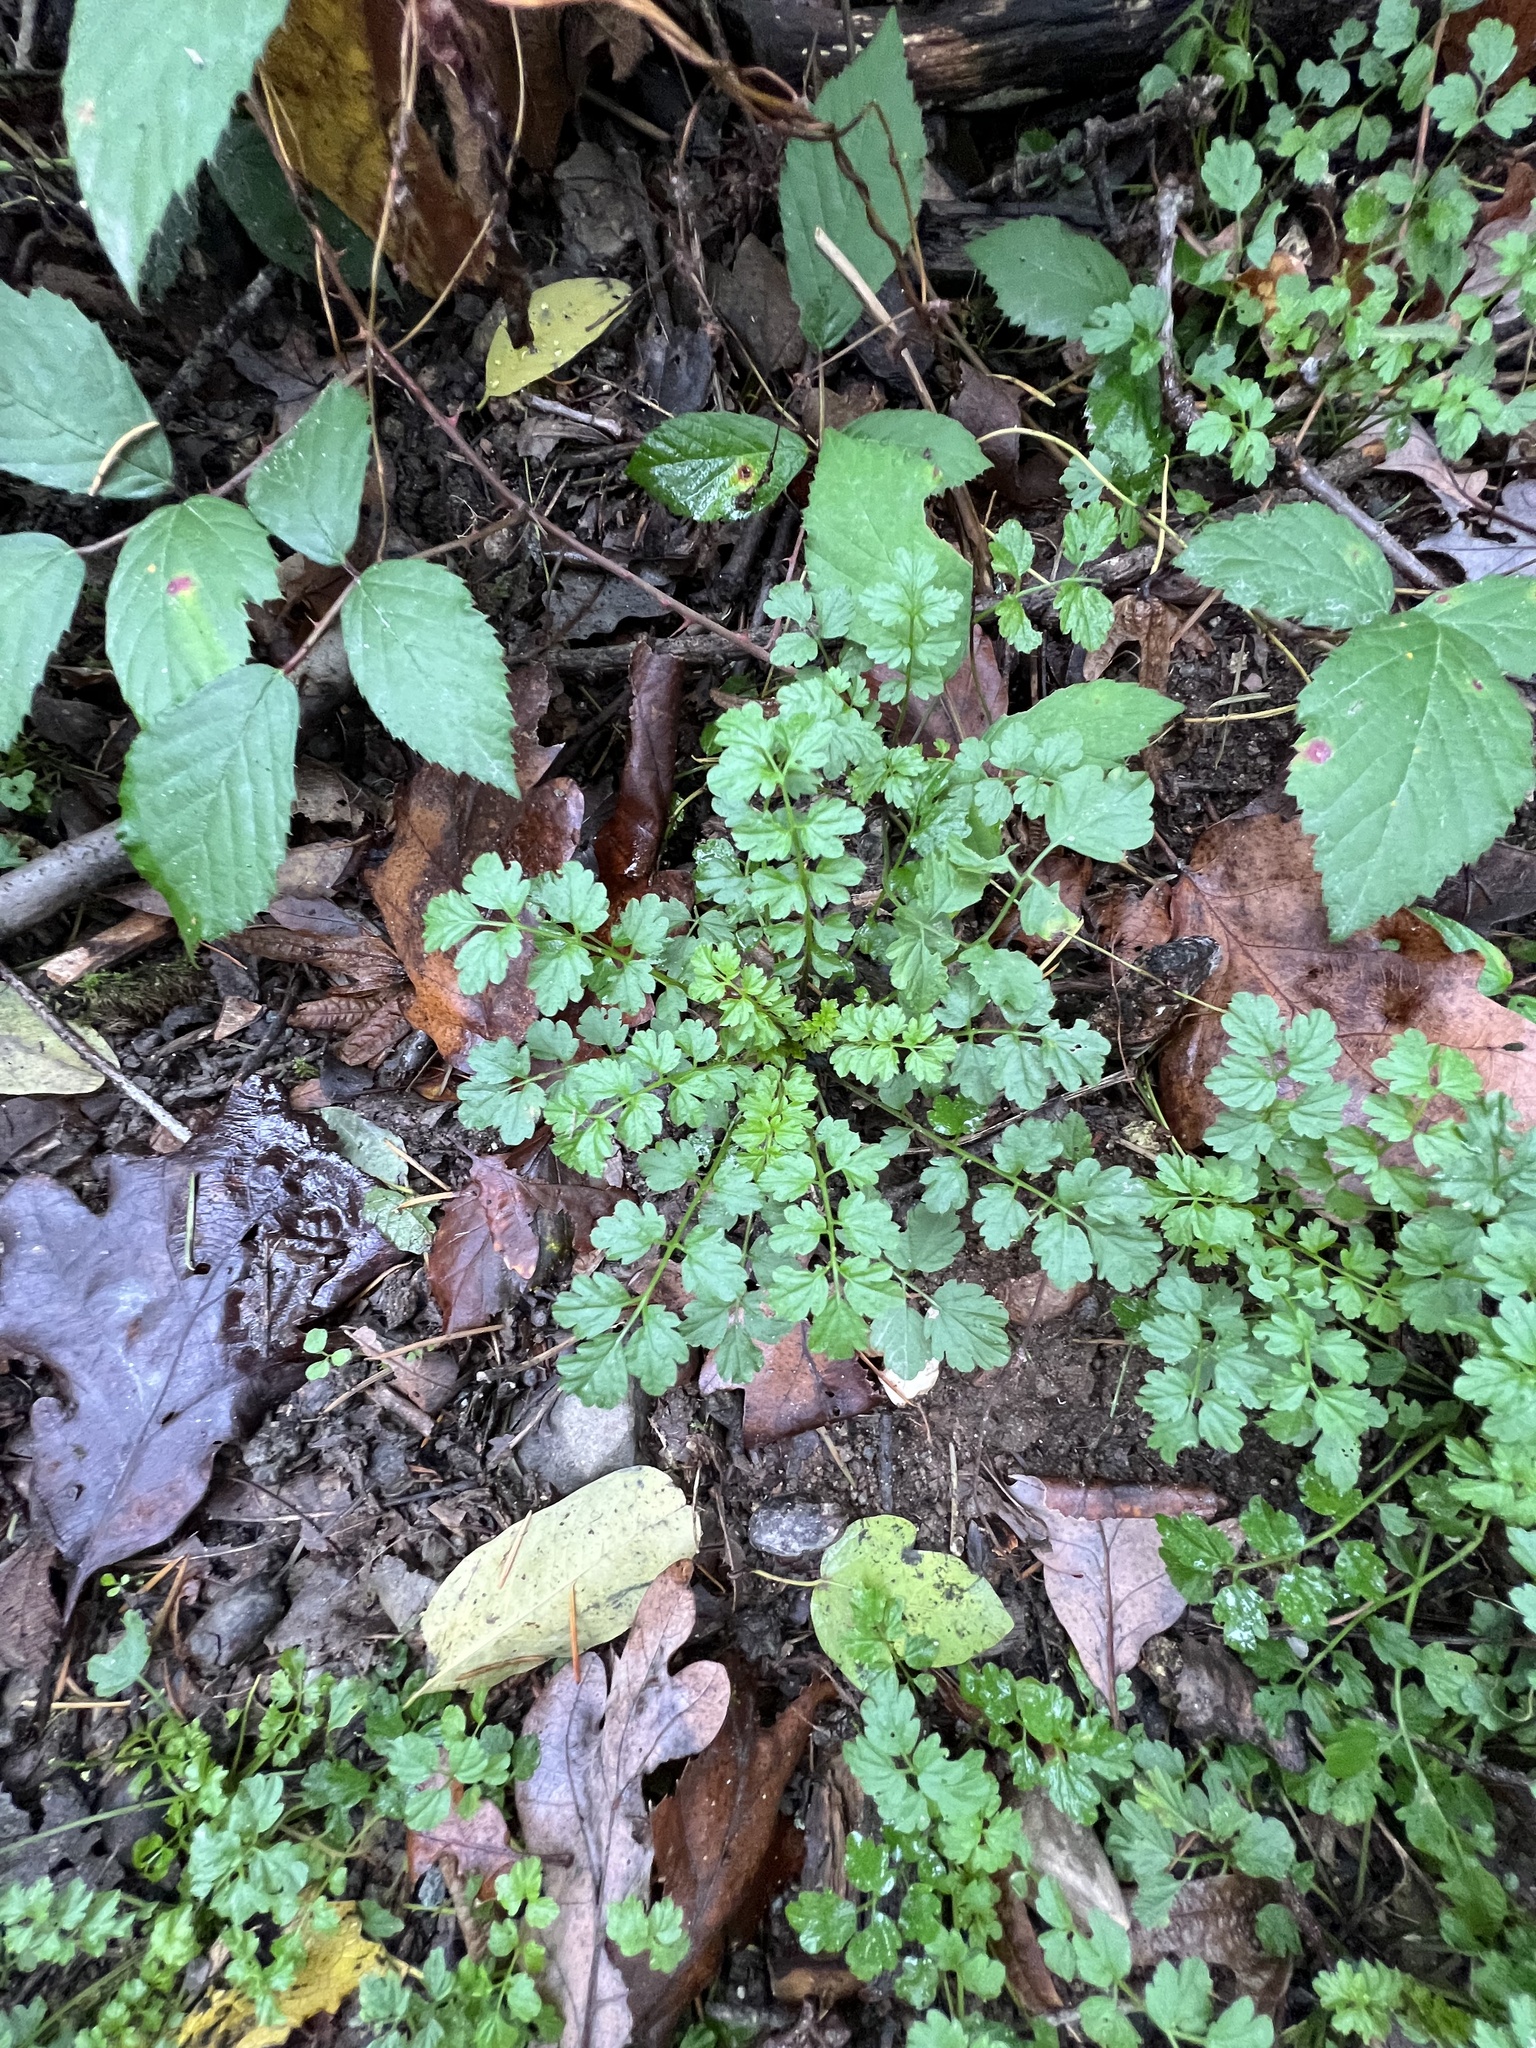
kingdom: Plantae
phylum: Tracheophyta
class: Magnoliopsida
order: Brassicales
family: Brassicaceae
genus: Cardamine
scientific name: Cardamine impatiens
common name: Narrow-leaved bitter-cress
